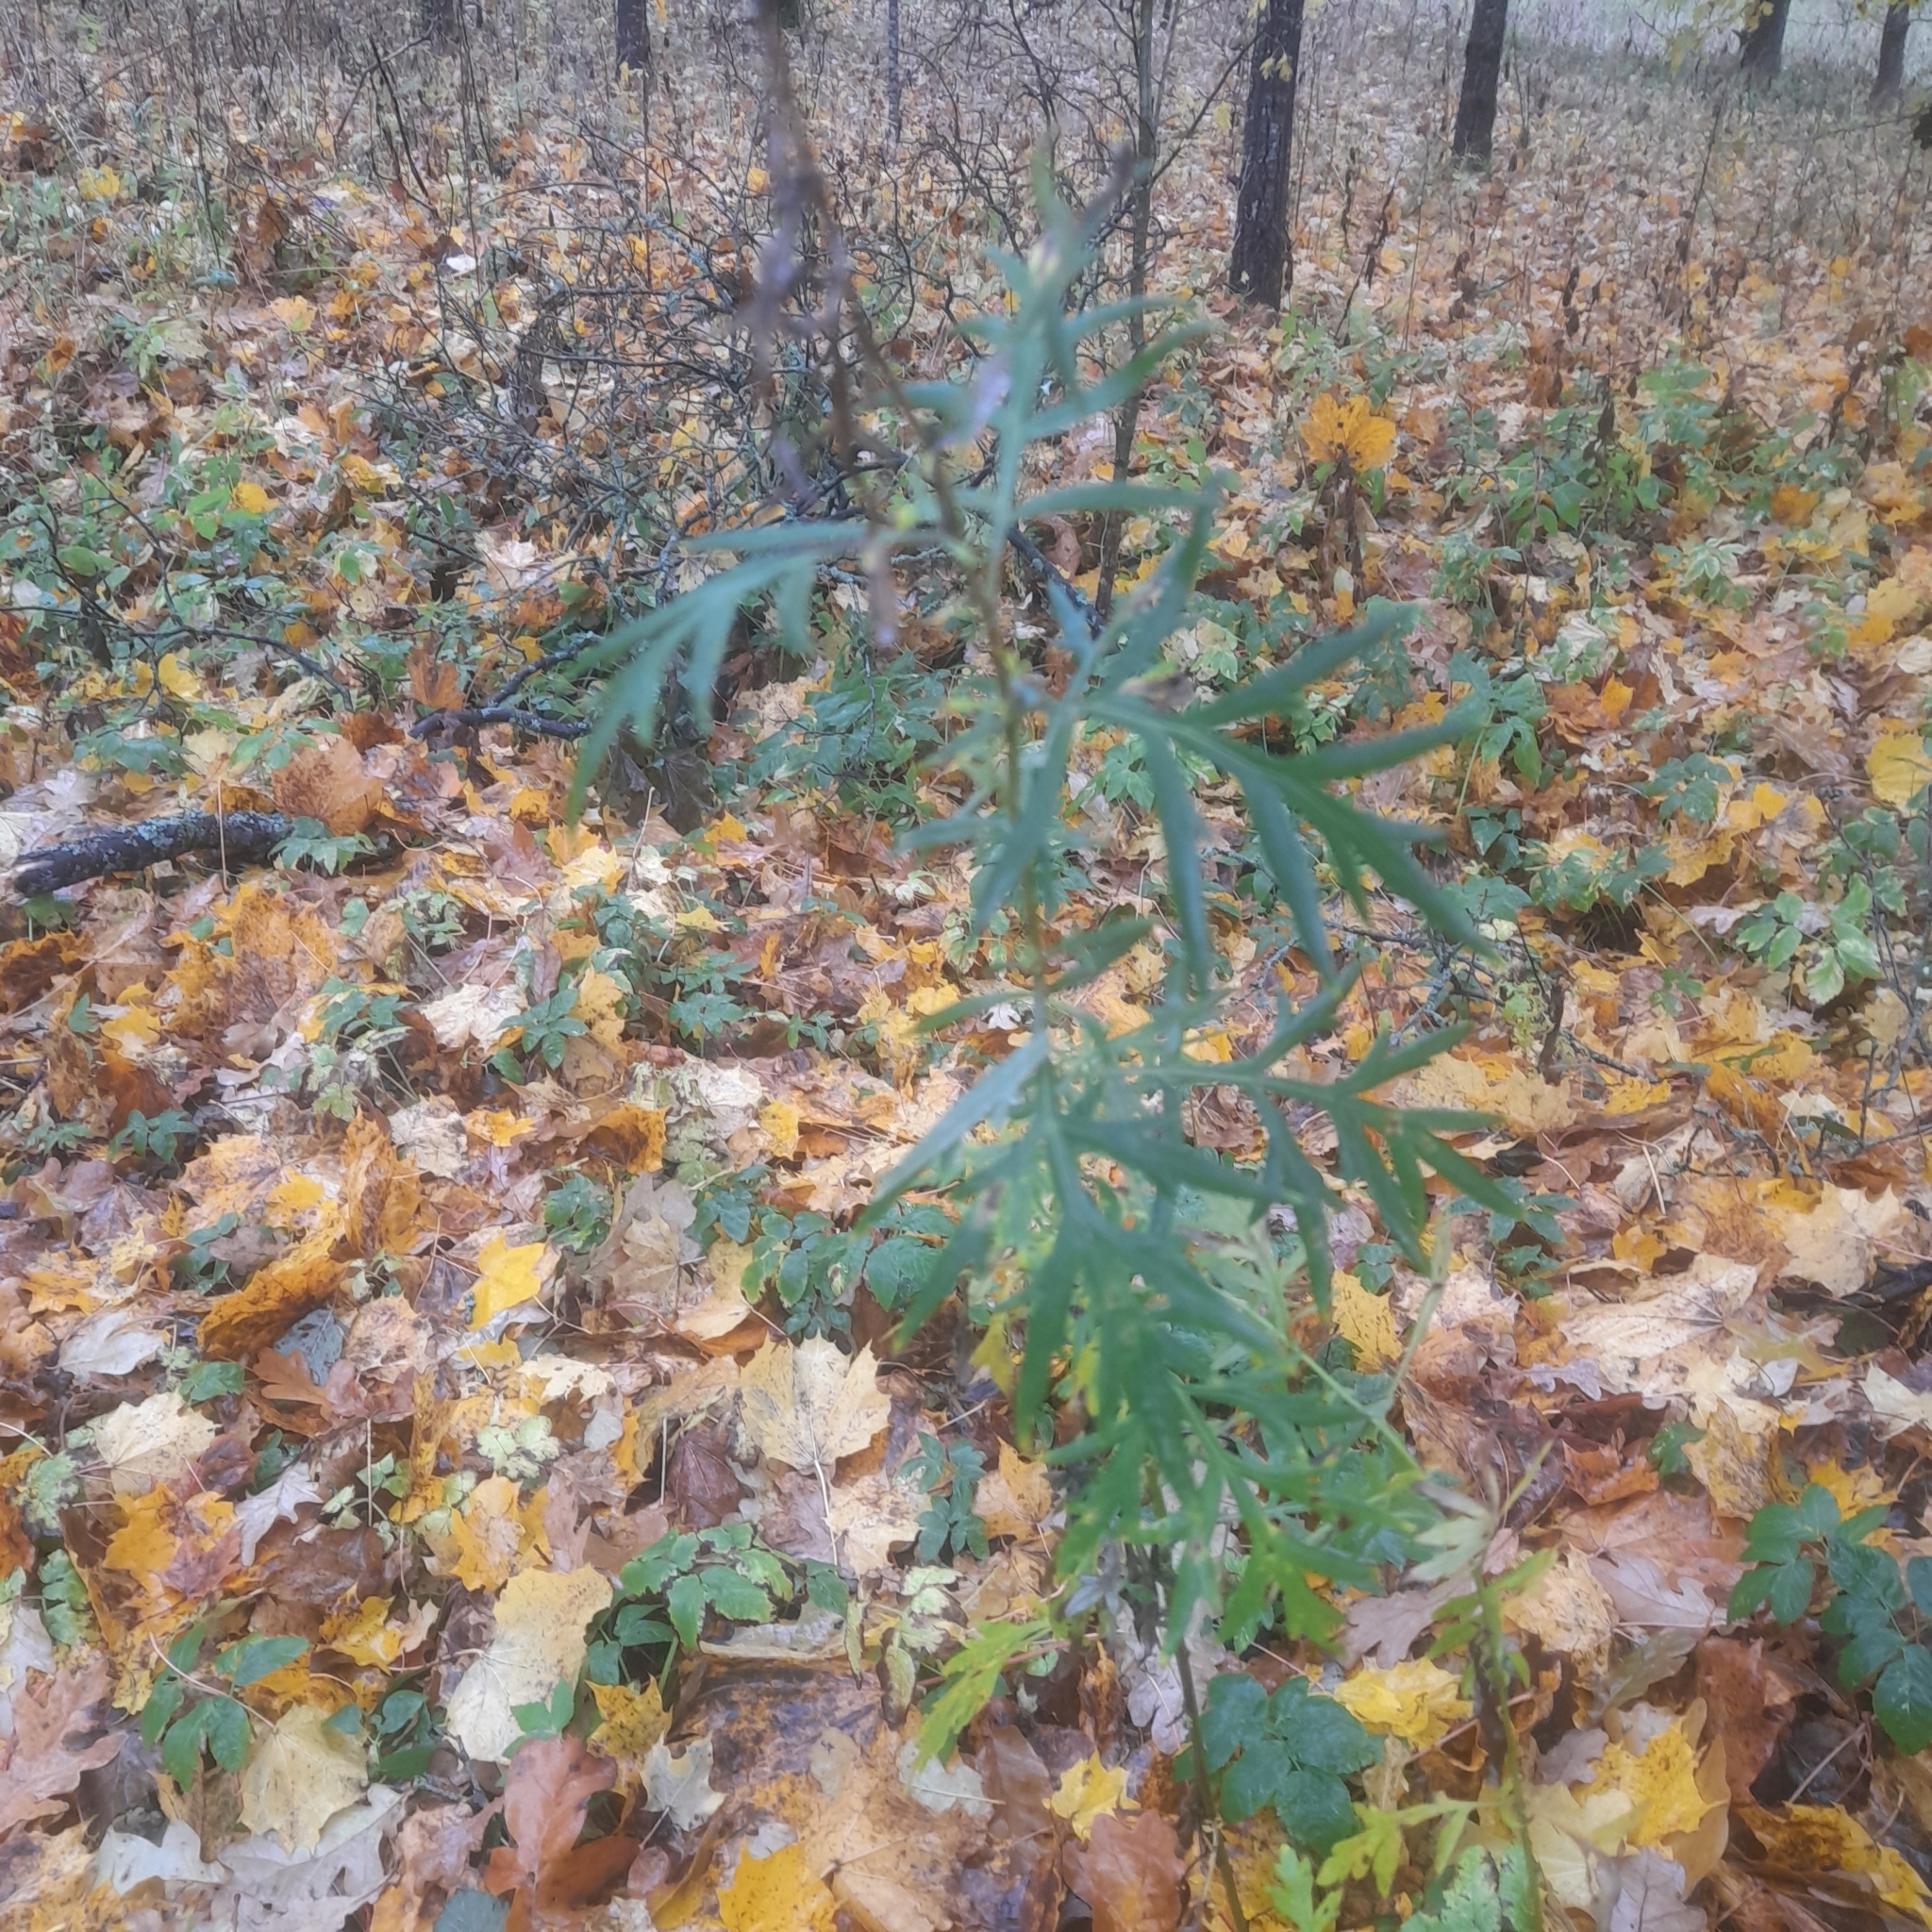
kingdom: Plantae
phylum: Tracheophyta
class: Magnoliopsida
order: Asterales
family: Asteraceae
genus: Artemisia
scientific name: Artemisia vulgaris
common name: Mugwort
